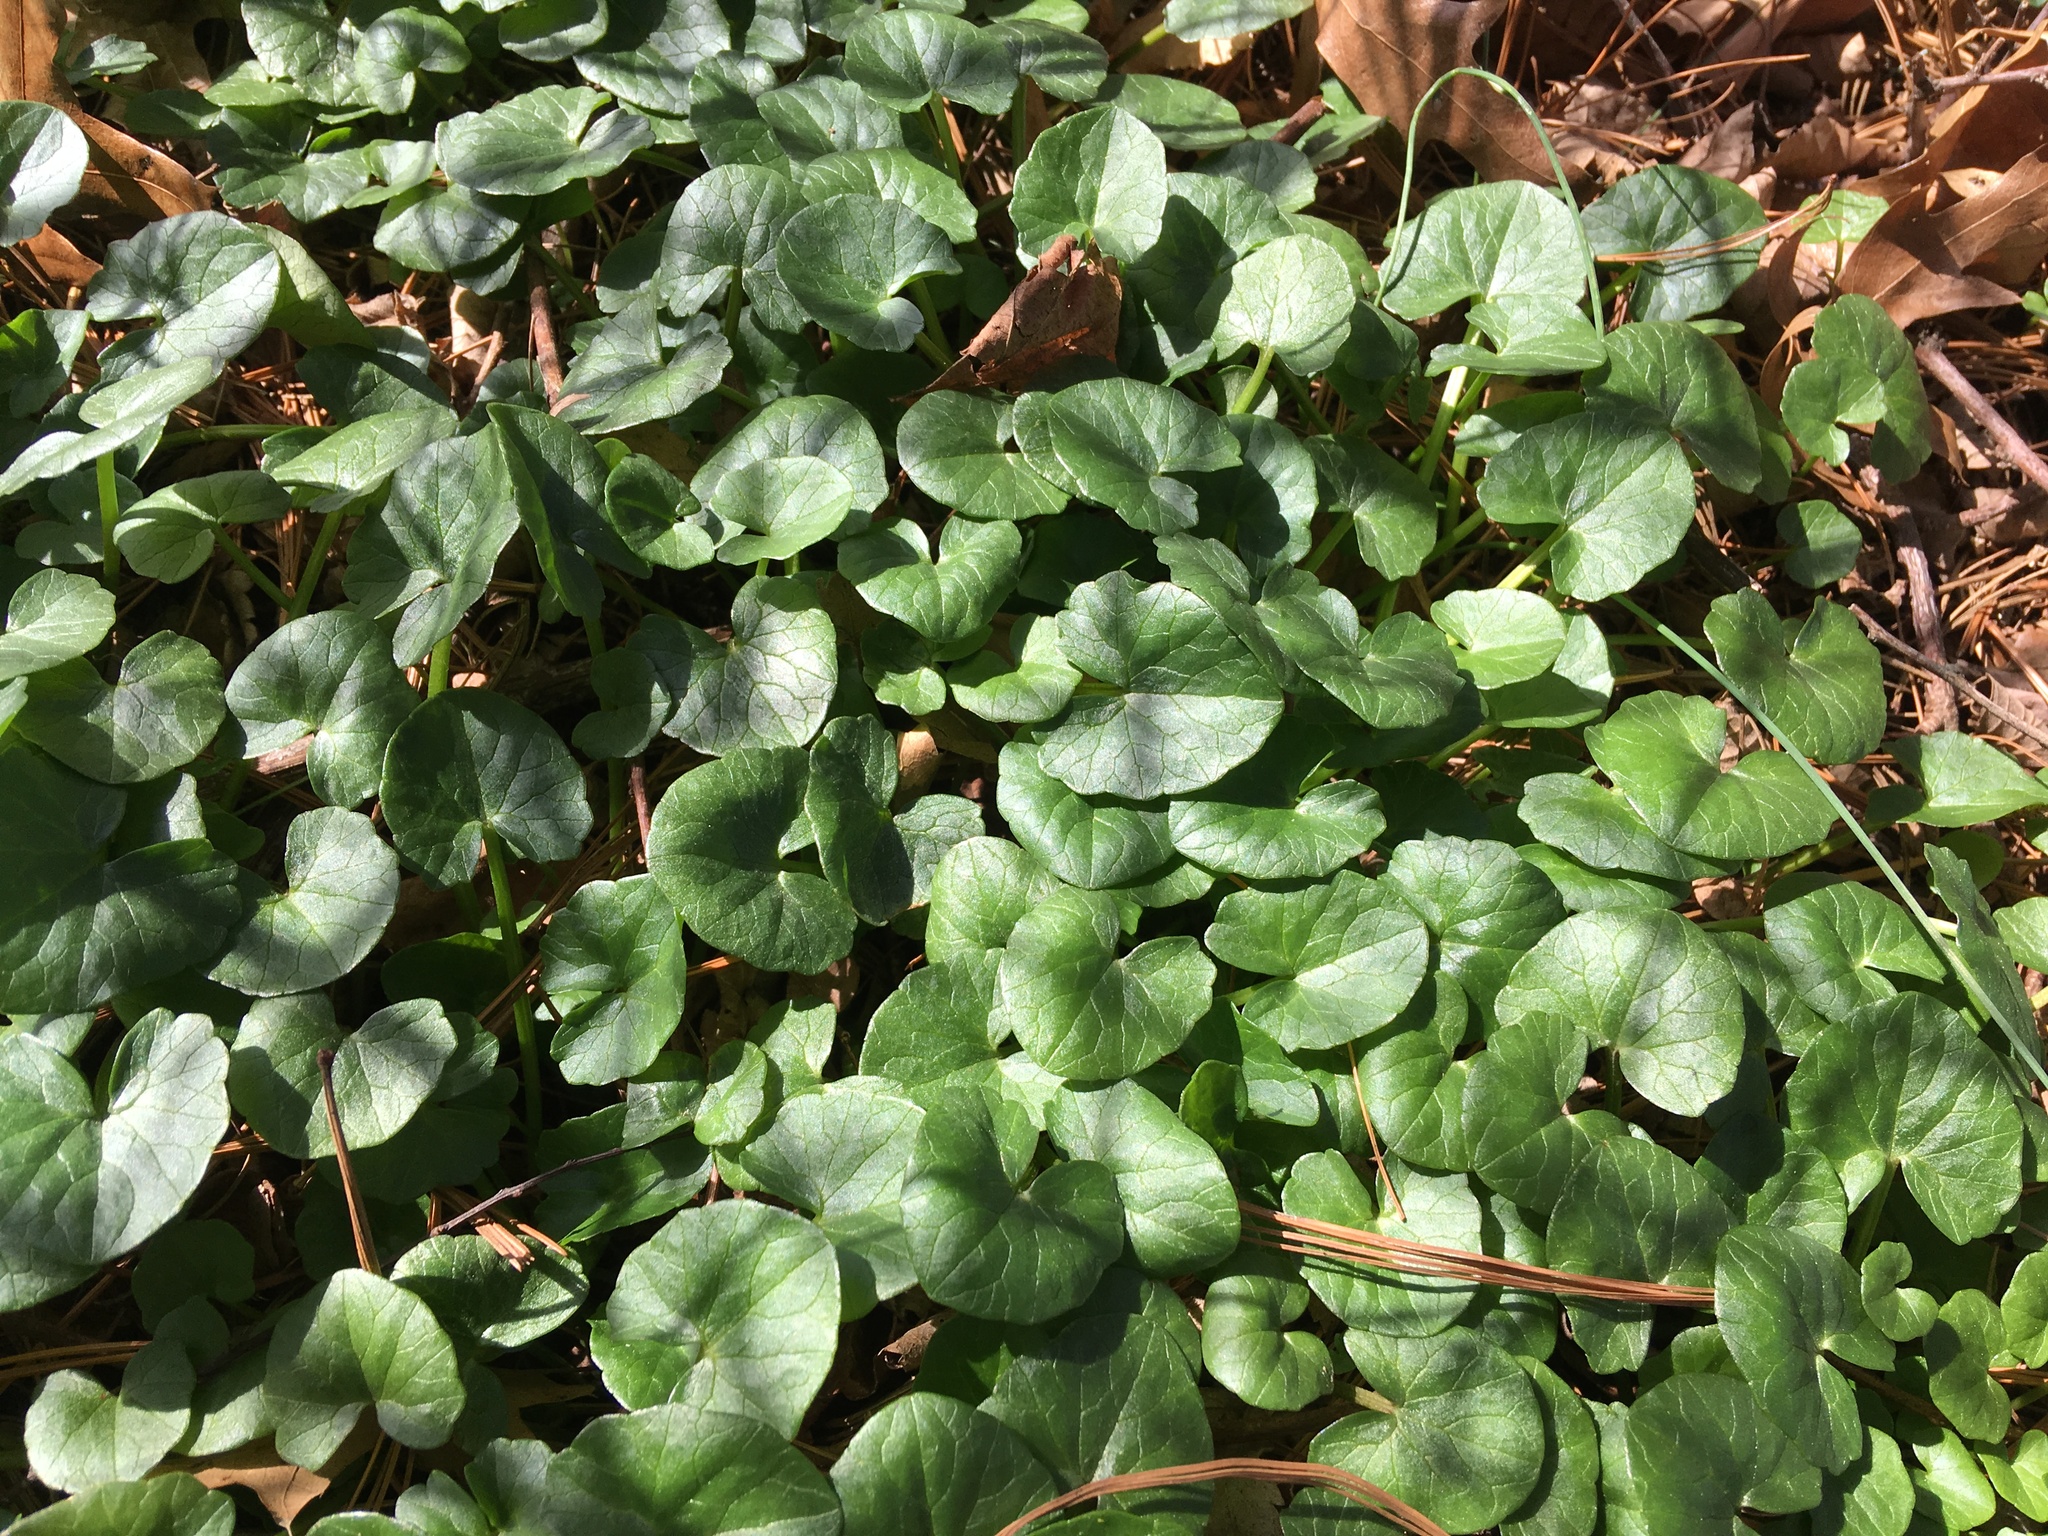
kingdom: Plantae
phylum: Tracheophyta
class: Magnoliopsida
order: Ranunculales
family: Ranunculaceae
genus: Ficaria
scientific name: Ficaria verna
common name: Lesser celandine
